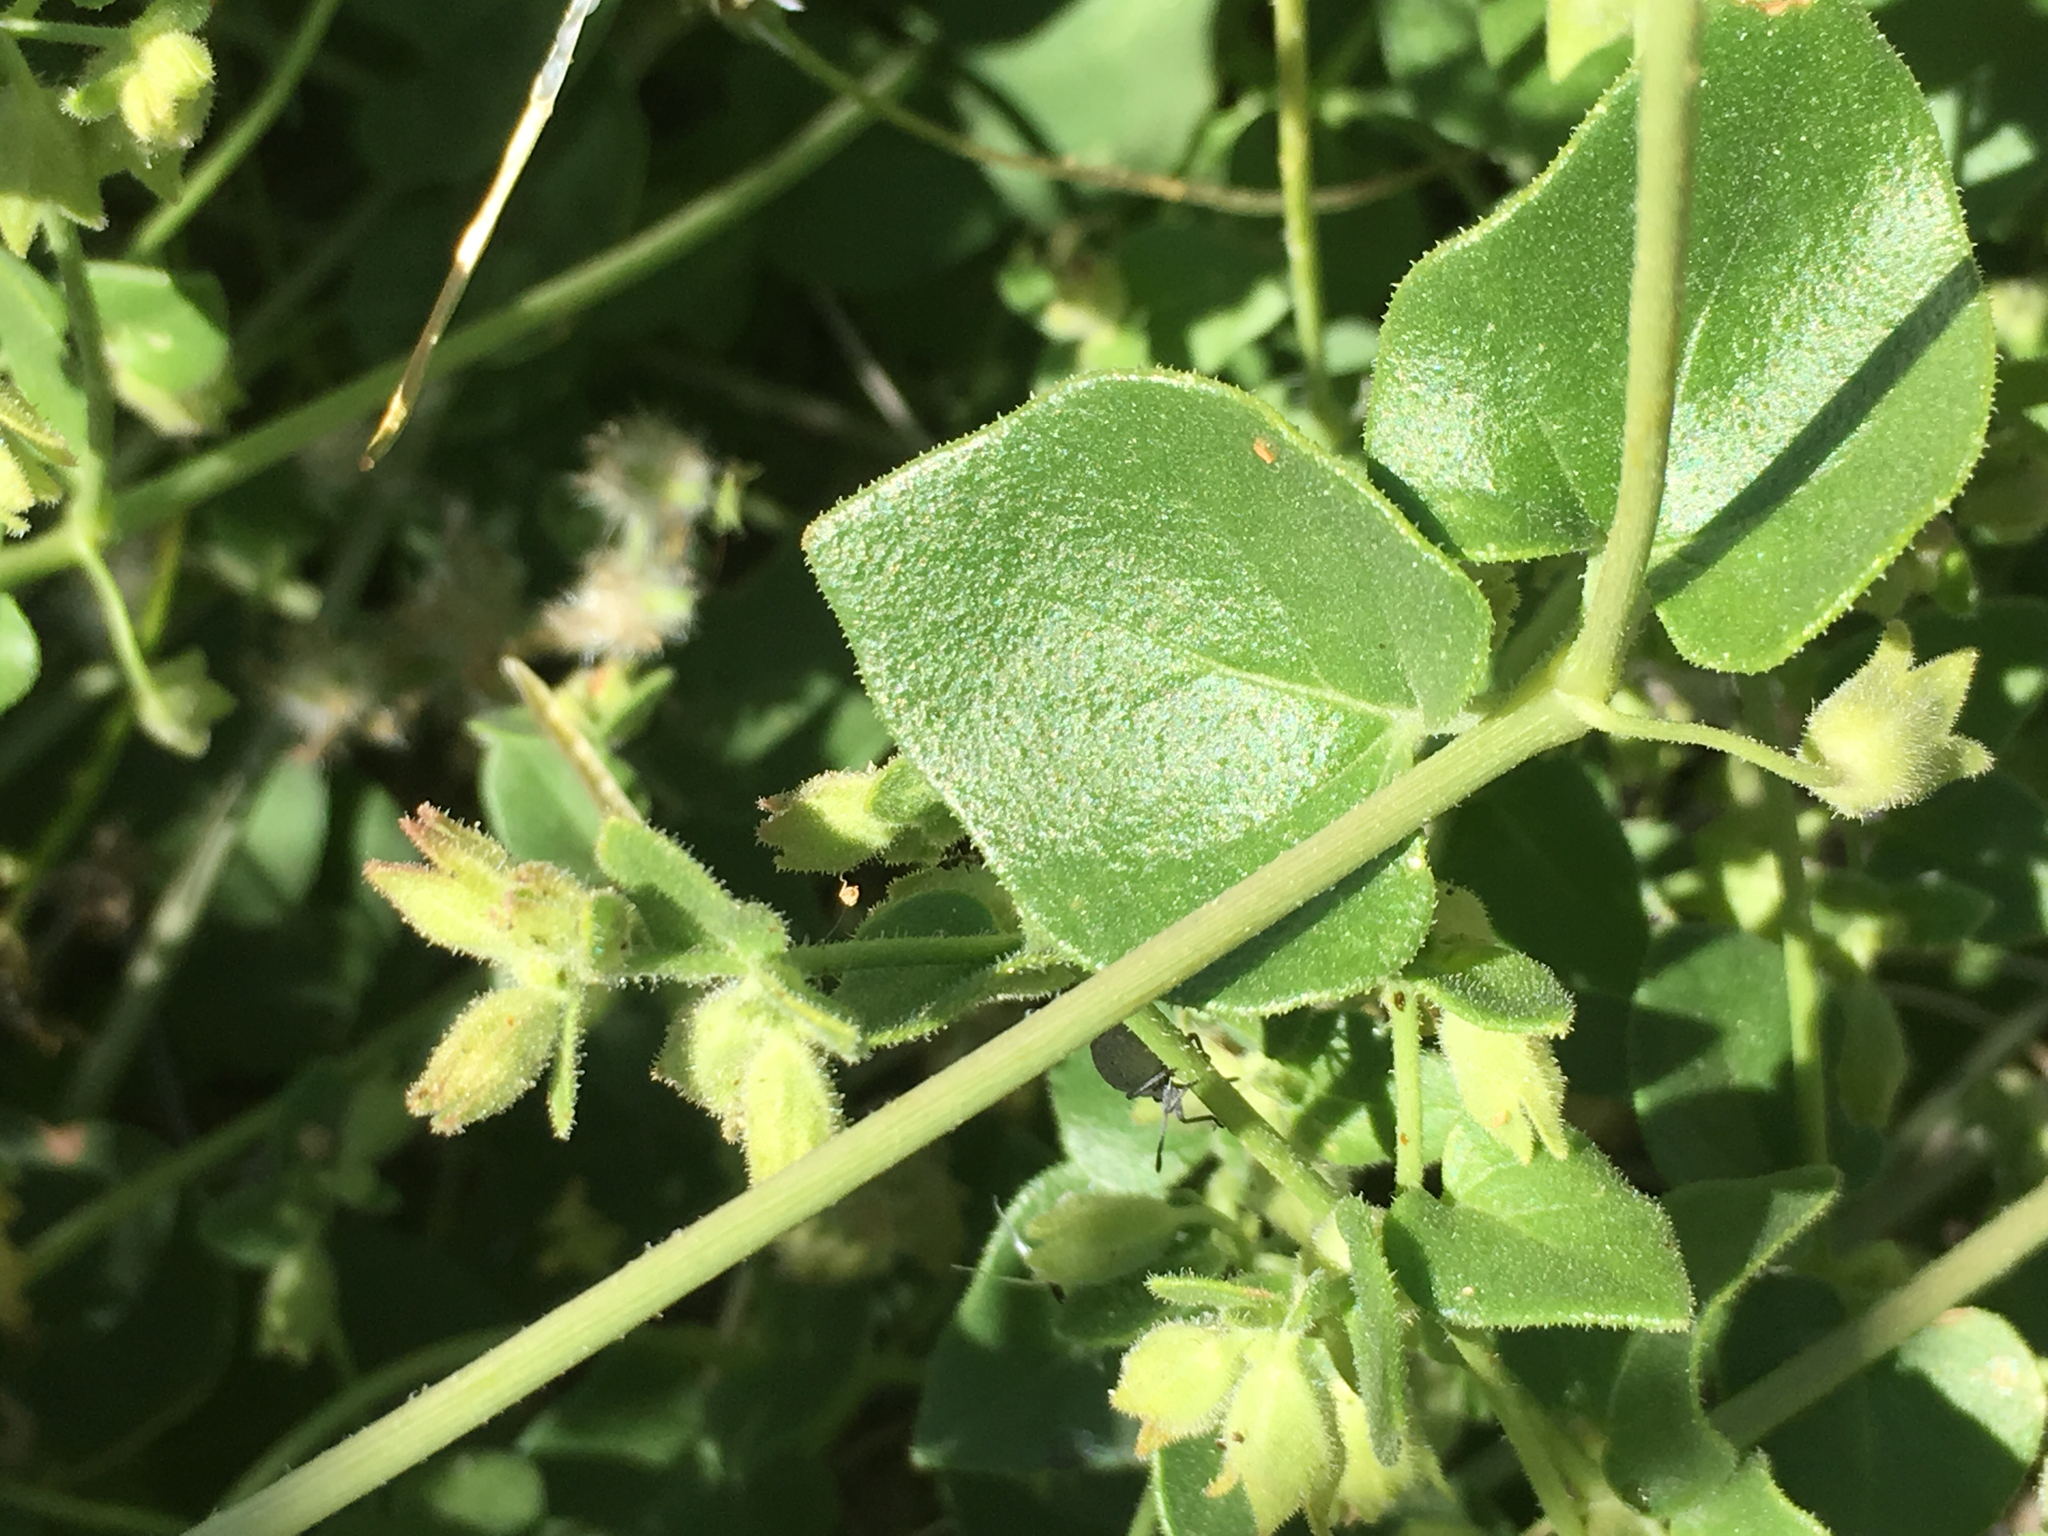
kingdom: Plantae
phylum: Tracheophyta
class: Magnoliopsida
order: Caryophyllales
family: Nyctaginaceae
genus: Mirabilis
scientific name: Mirabilis laevis
